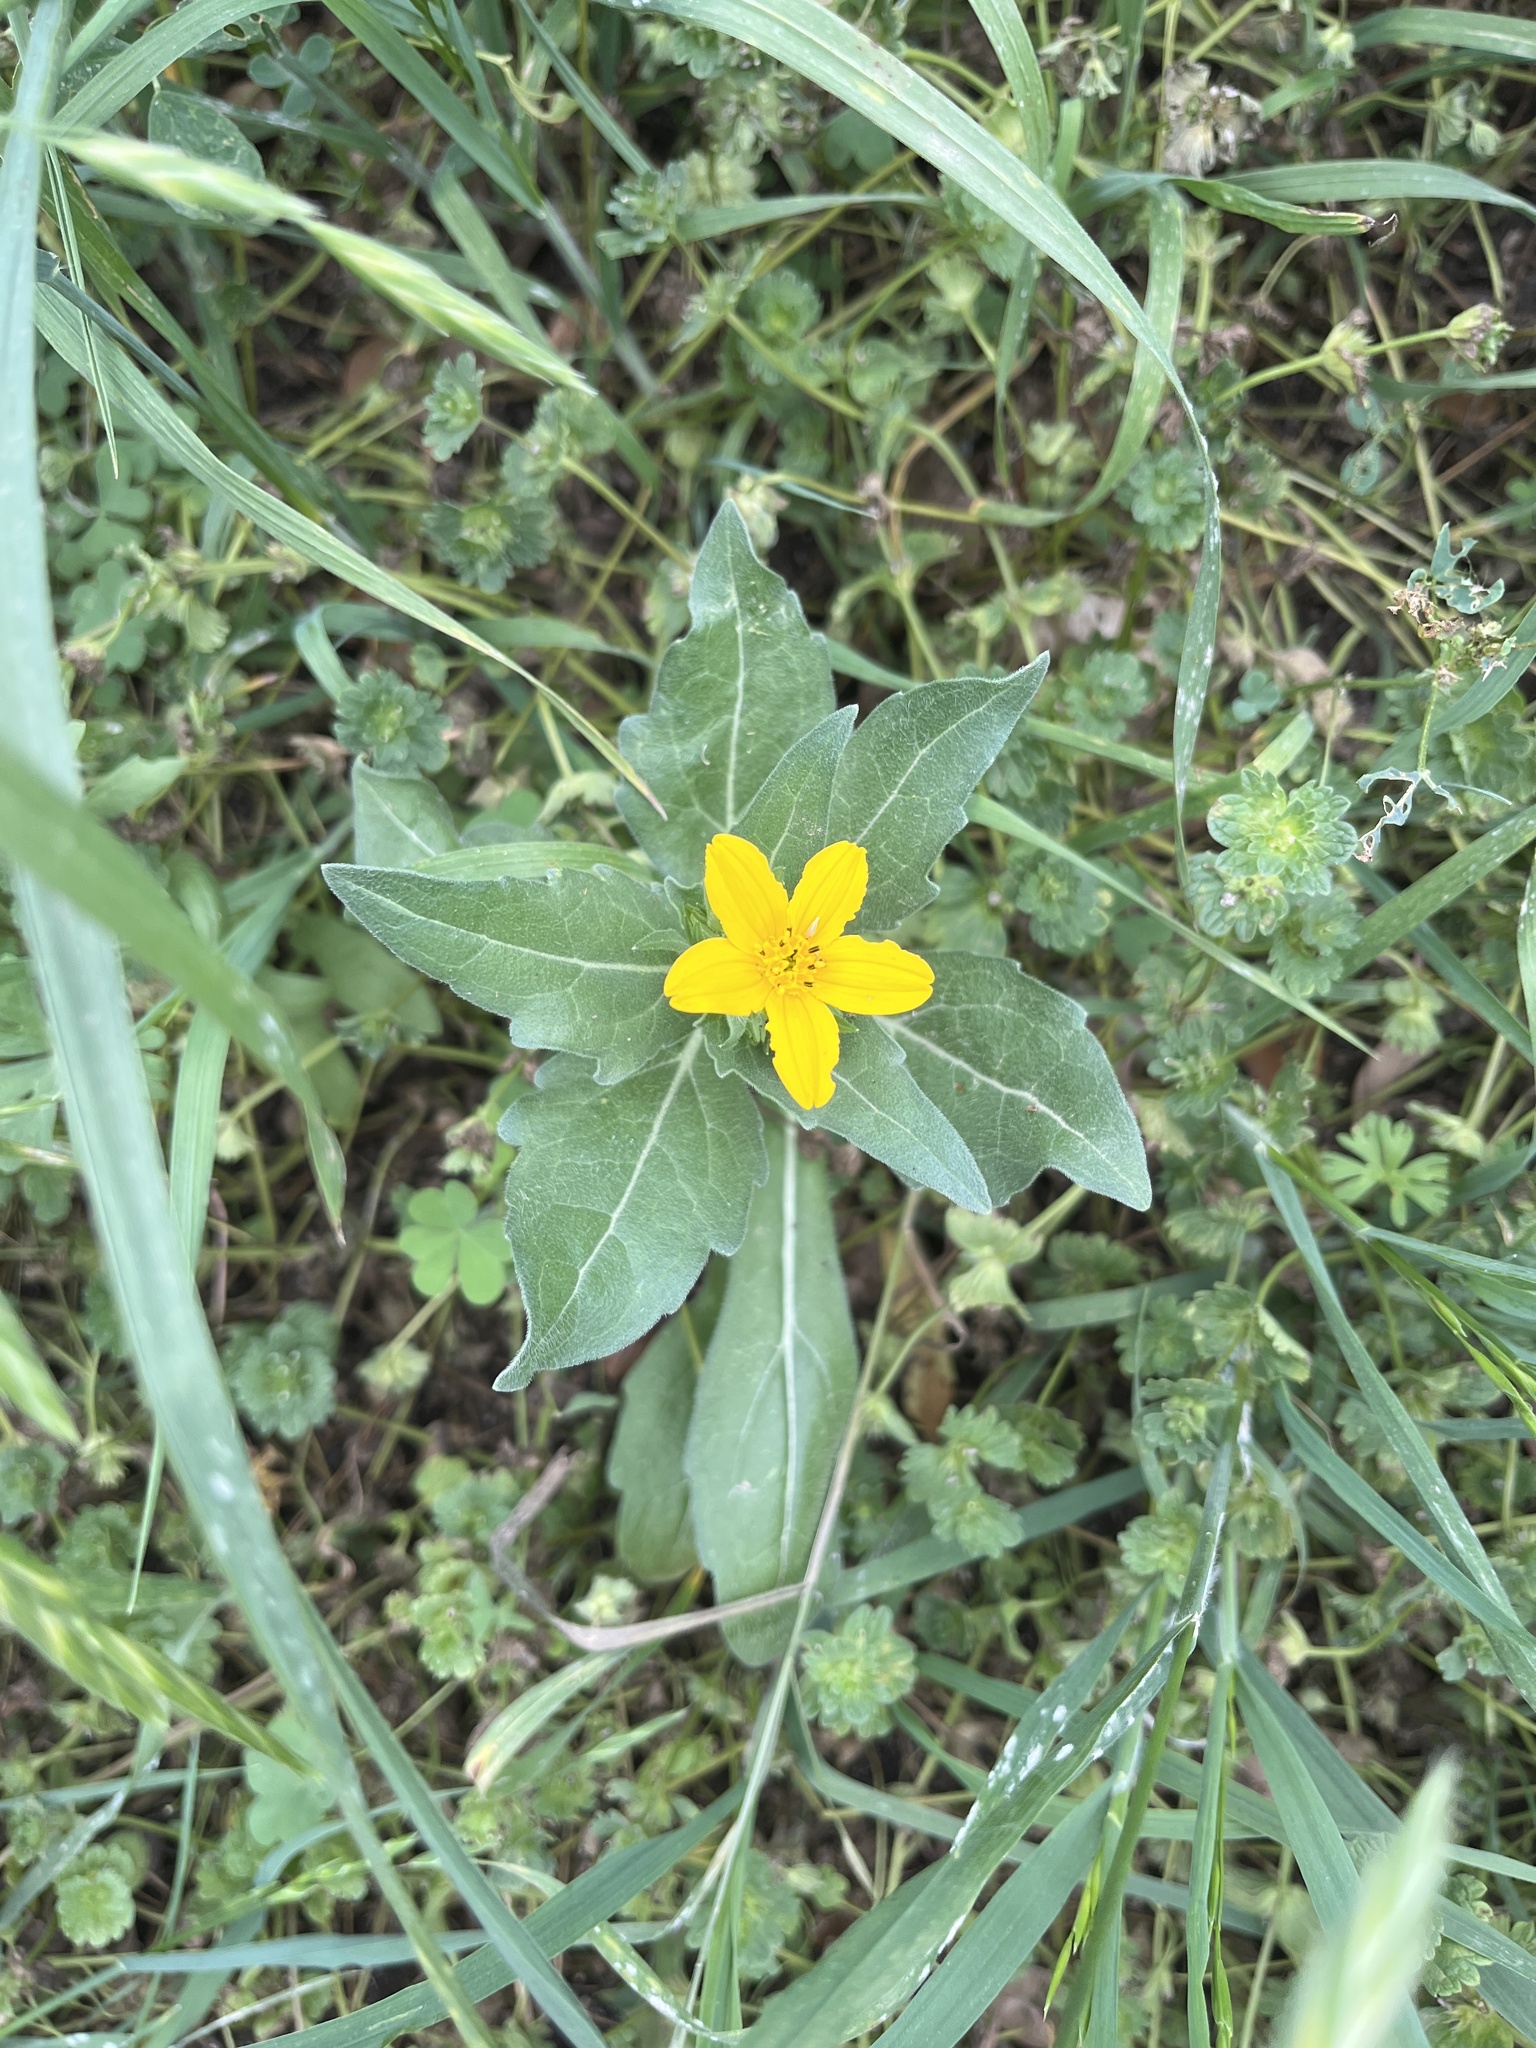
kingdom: Plantae
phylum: Tracheophyta
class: Magnoliopsida
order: Asterales
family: Asteraceae
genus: Lindheimera
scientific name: Lindheimera texana
